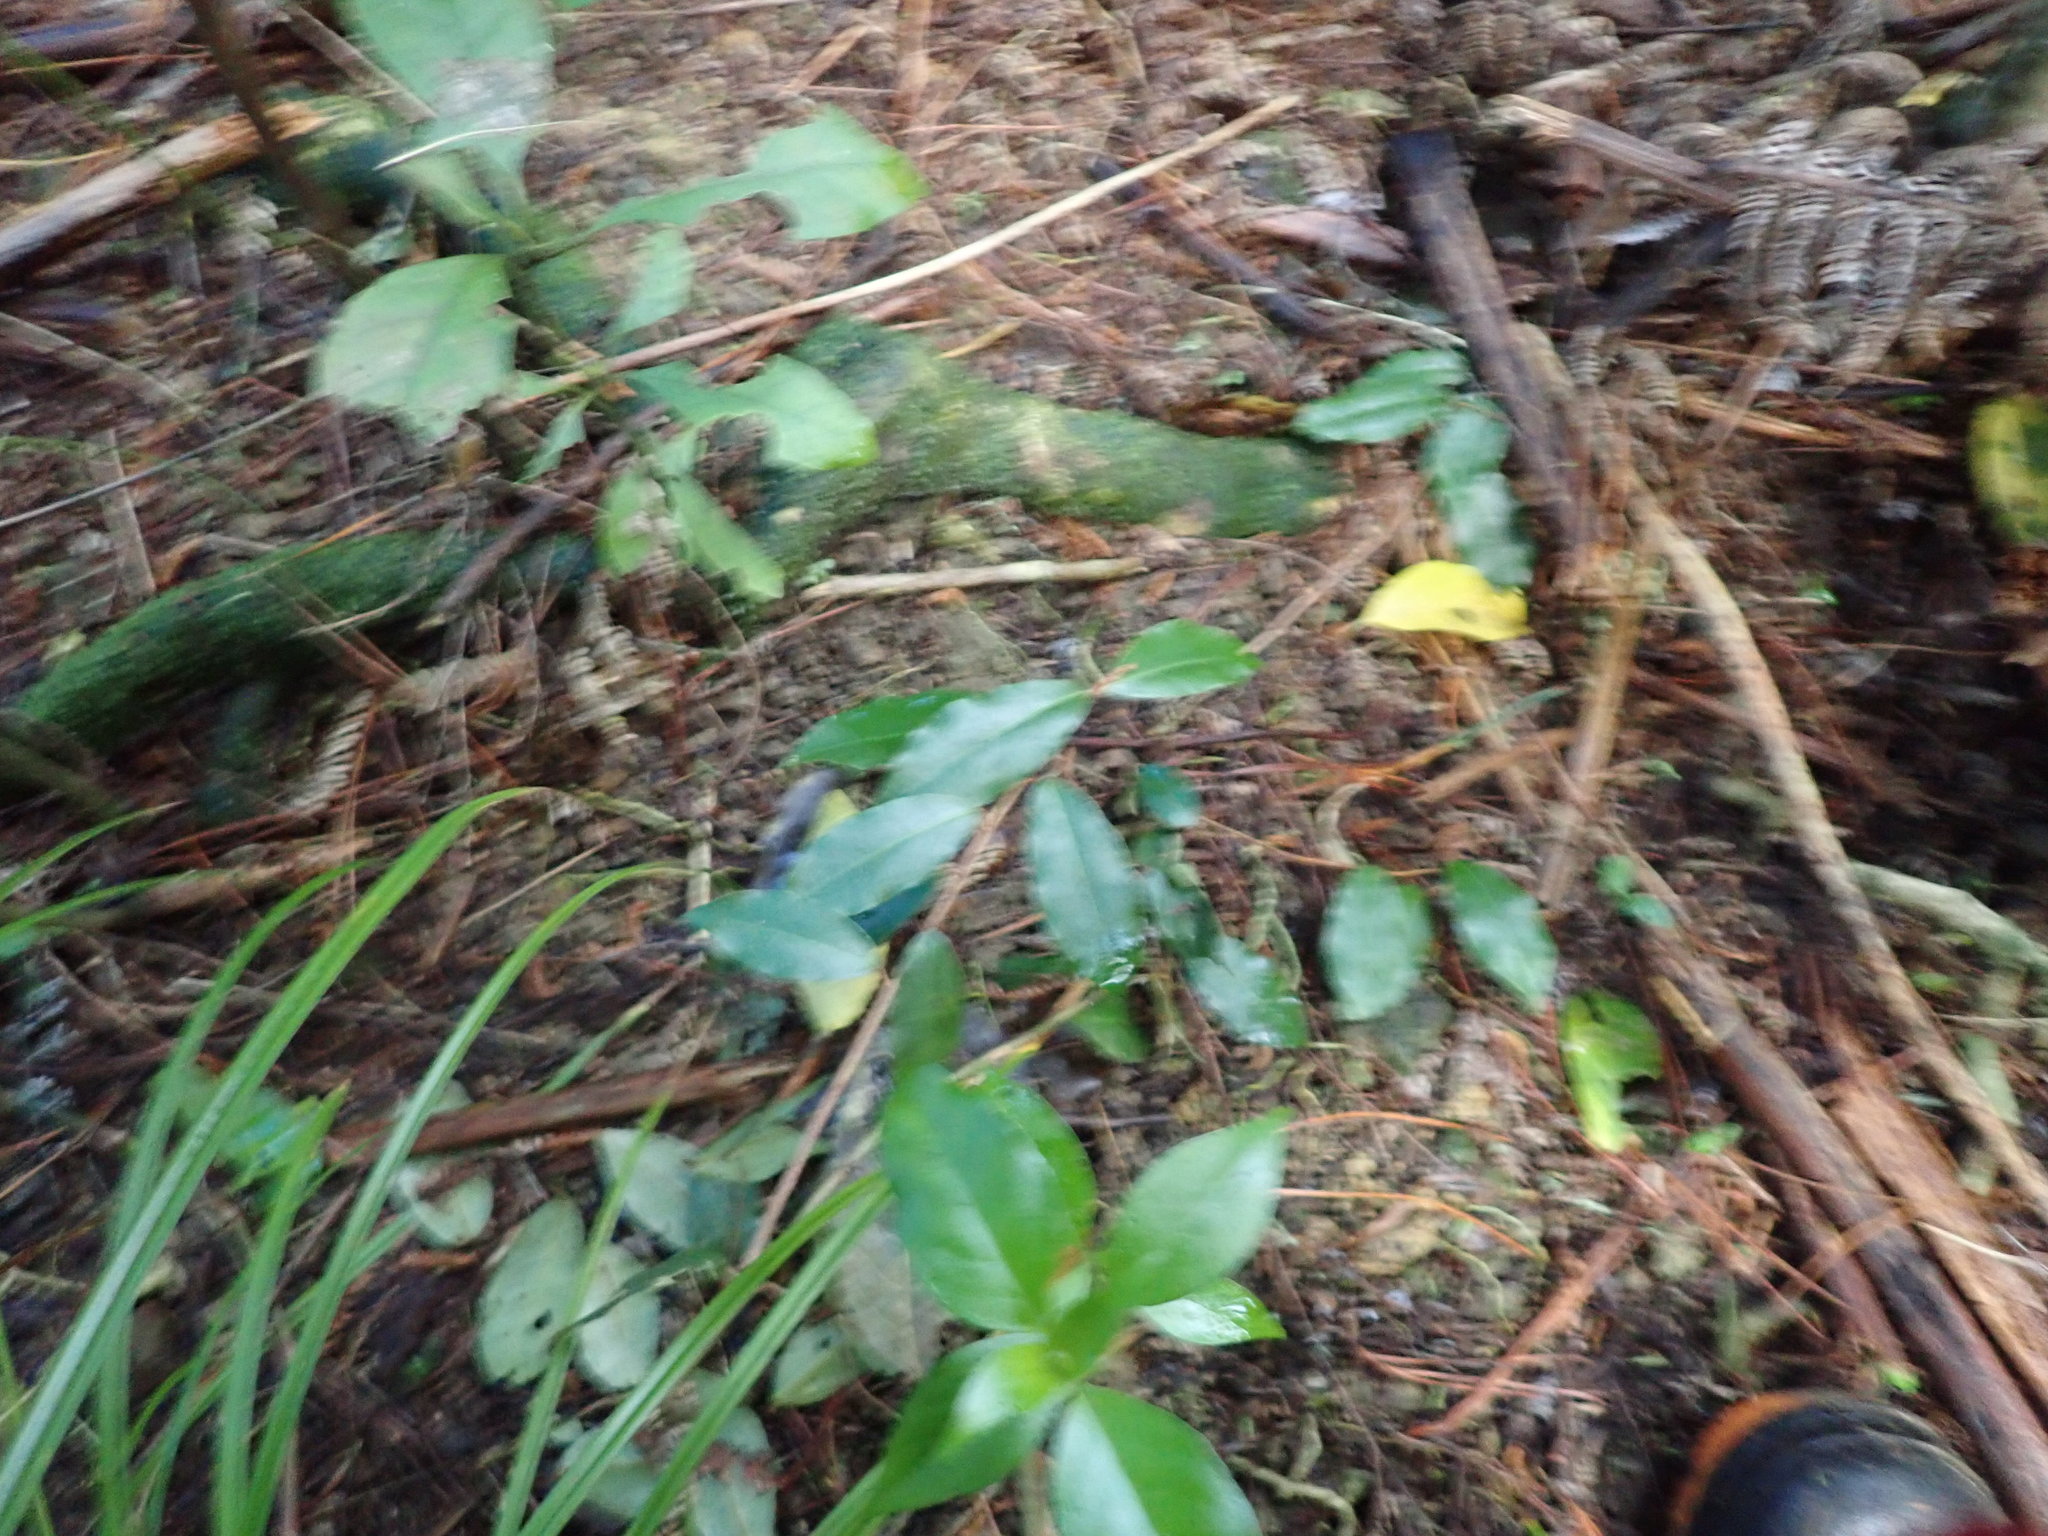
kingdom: Plantae
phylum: Tracheophyta
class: Magnoliopsida
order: Rosales
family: Elaeagnaceae
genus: Elaeagnus
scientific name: Elaeagnus reflexa
